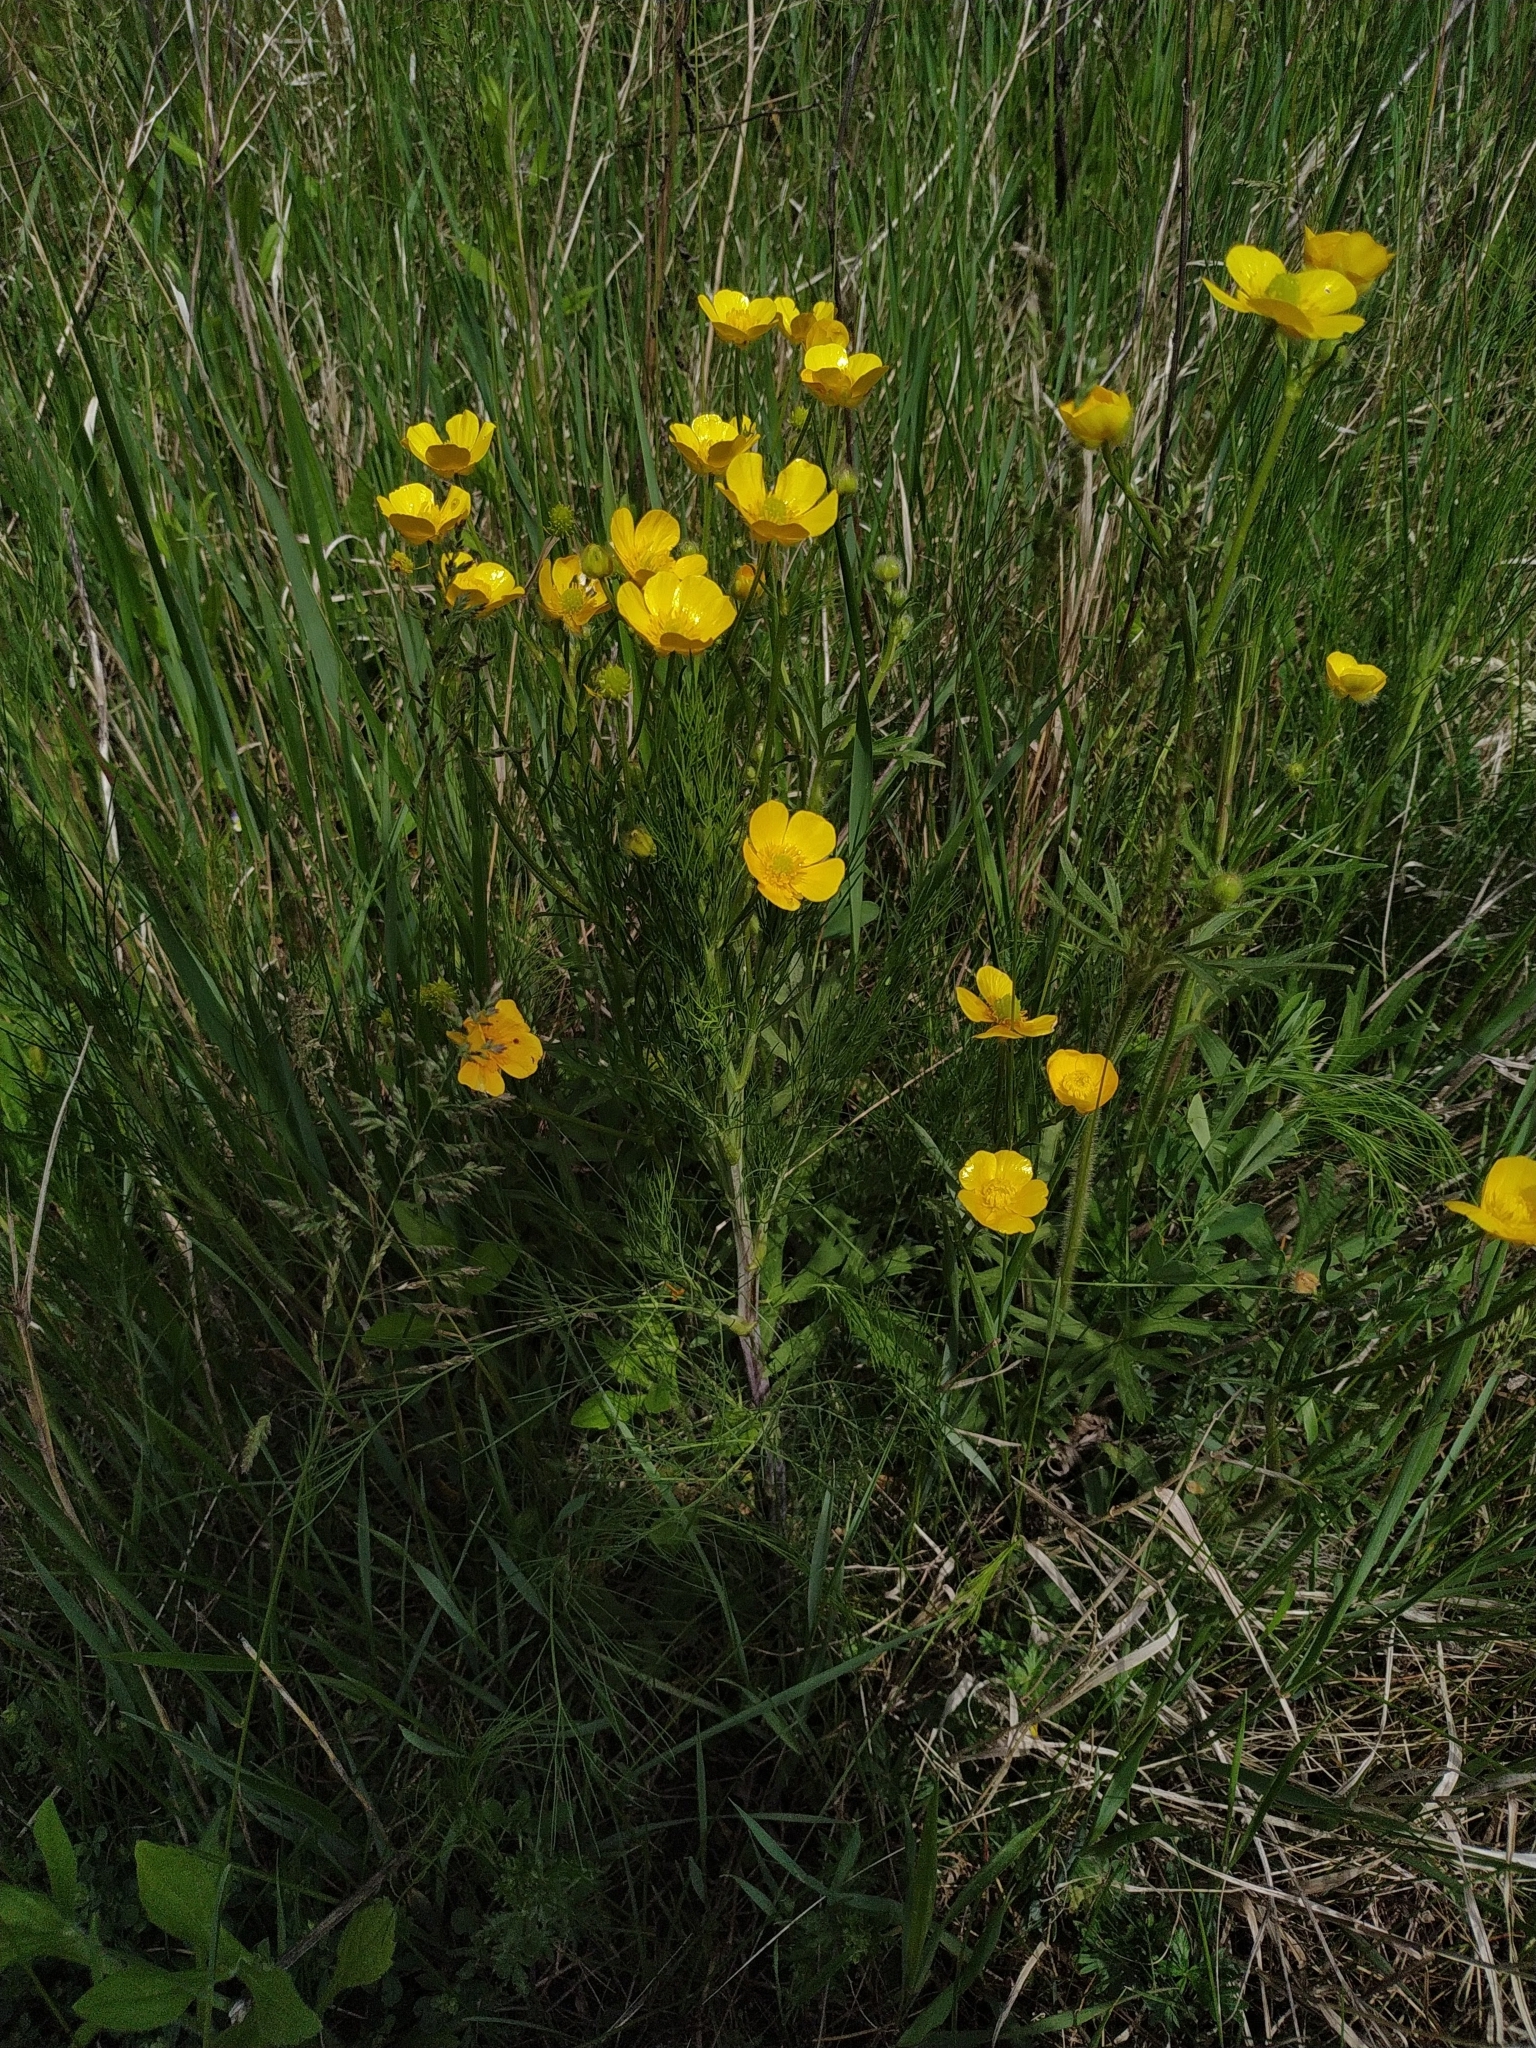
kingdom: Plantae
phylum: Tracheophyta
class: Magnoliopsida
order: Ranunculales
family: Ranunculaceae
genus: Ranunculus
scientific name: Ranunculus polyanthemos
